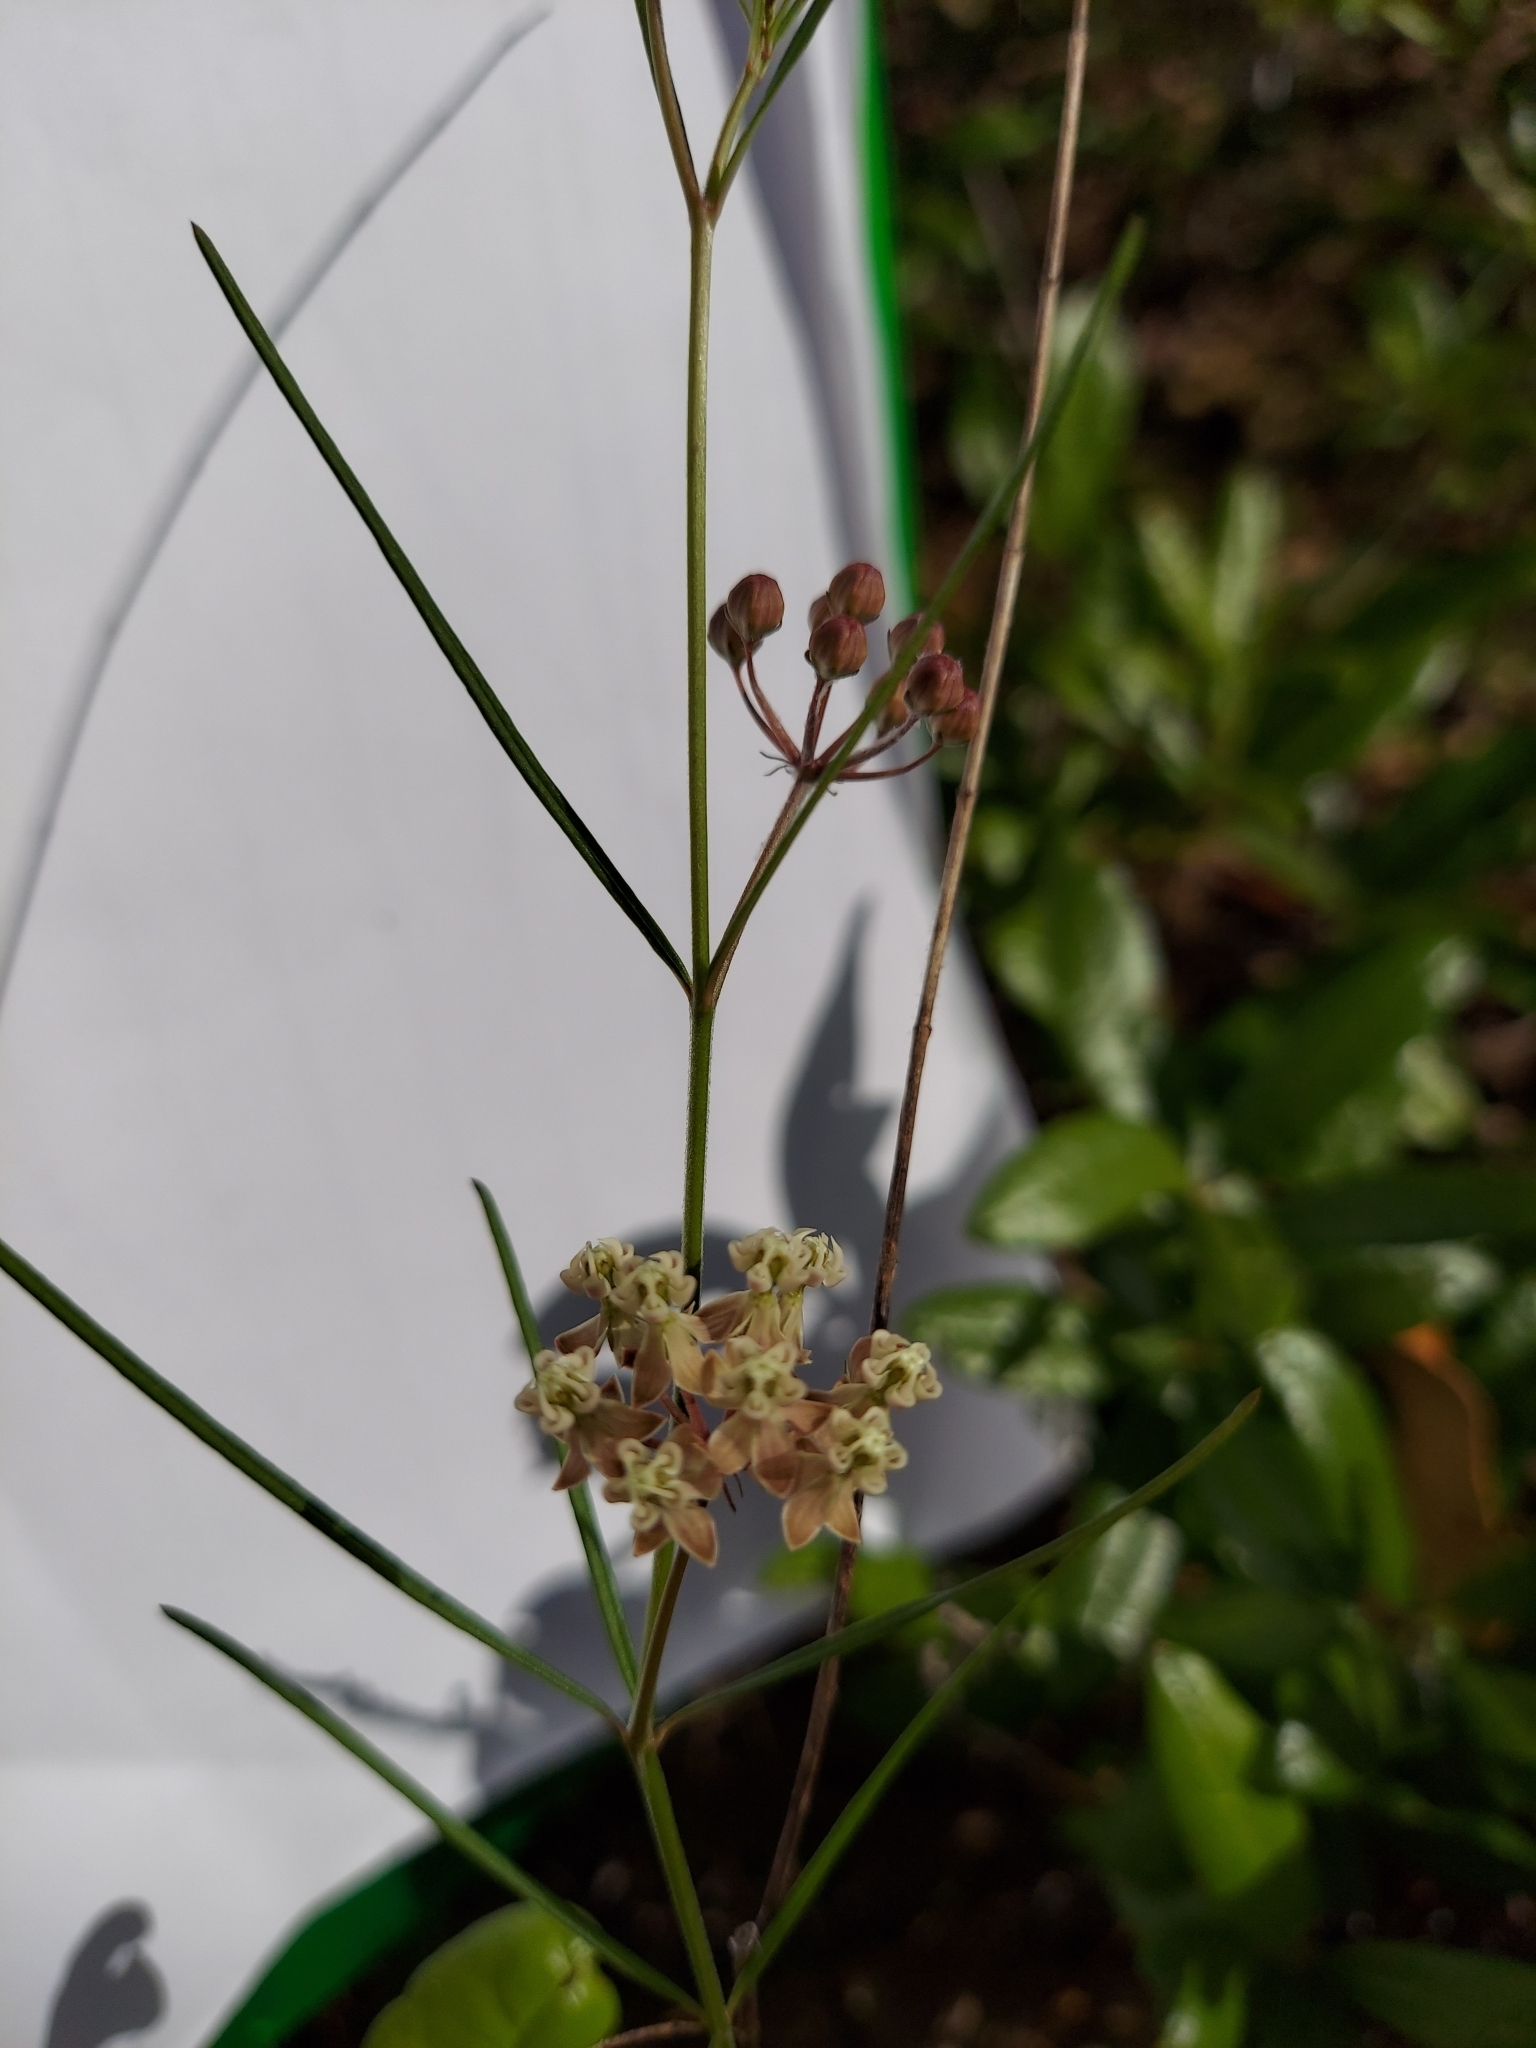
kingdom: Plantae
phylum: Tracheophyta
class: Magnoliopsida
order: Gentianales
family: Apocynaceae
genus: Asclepias
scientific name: Asclepias verticillata
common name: Eastern whorled milkweed
